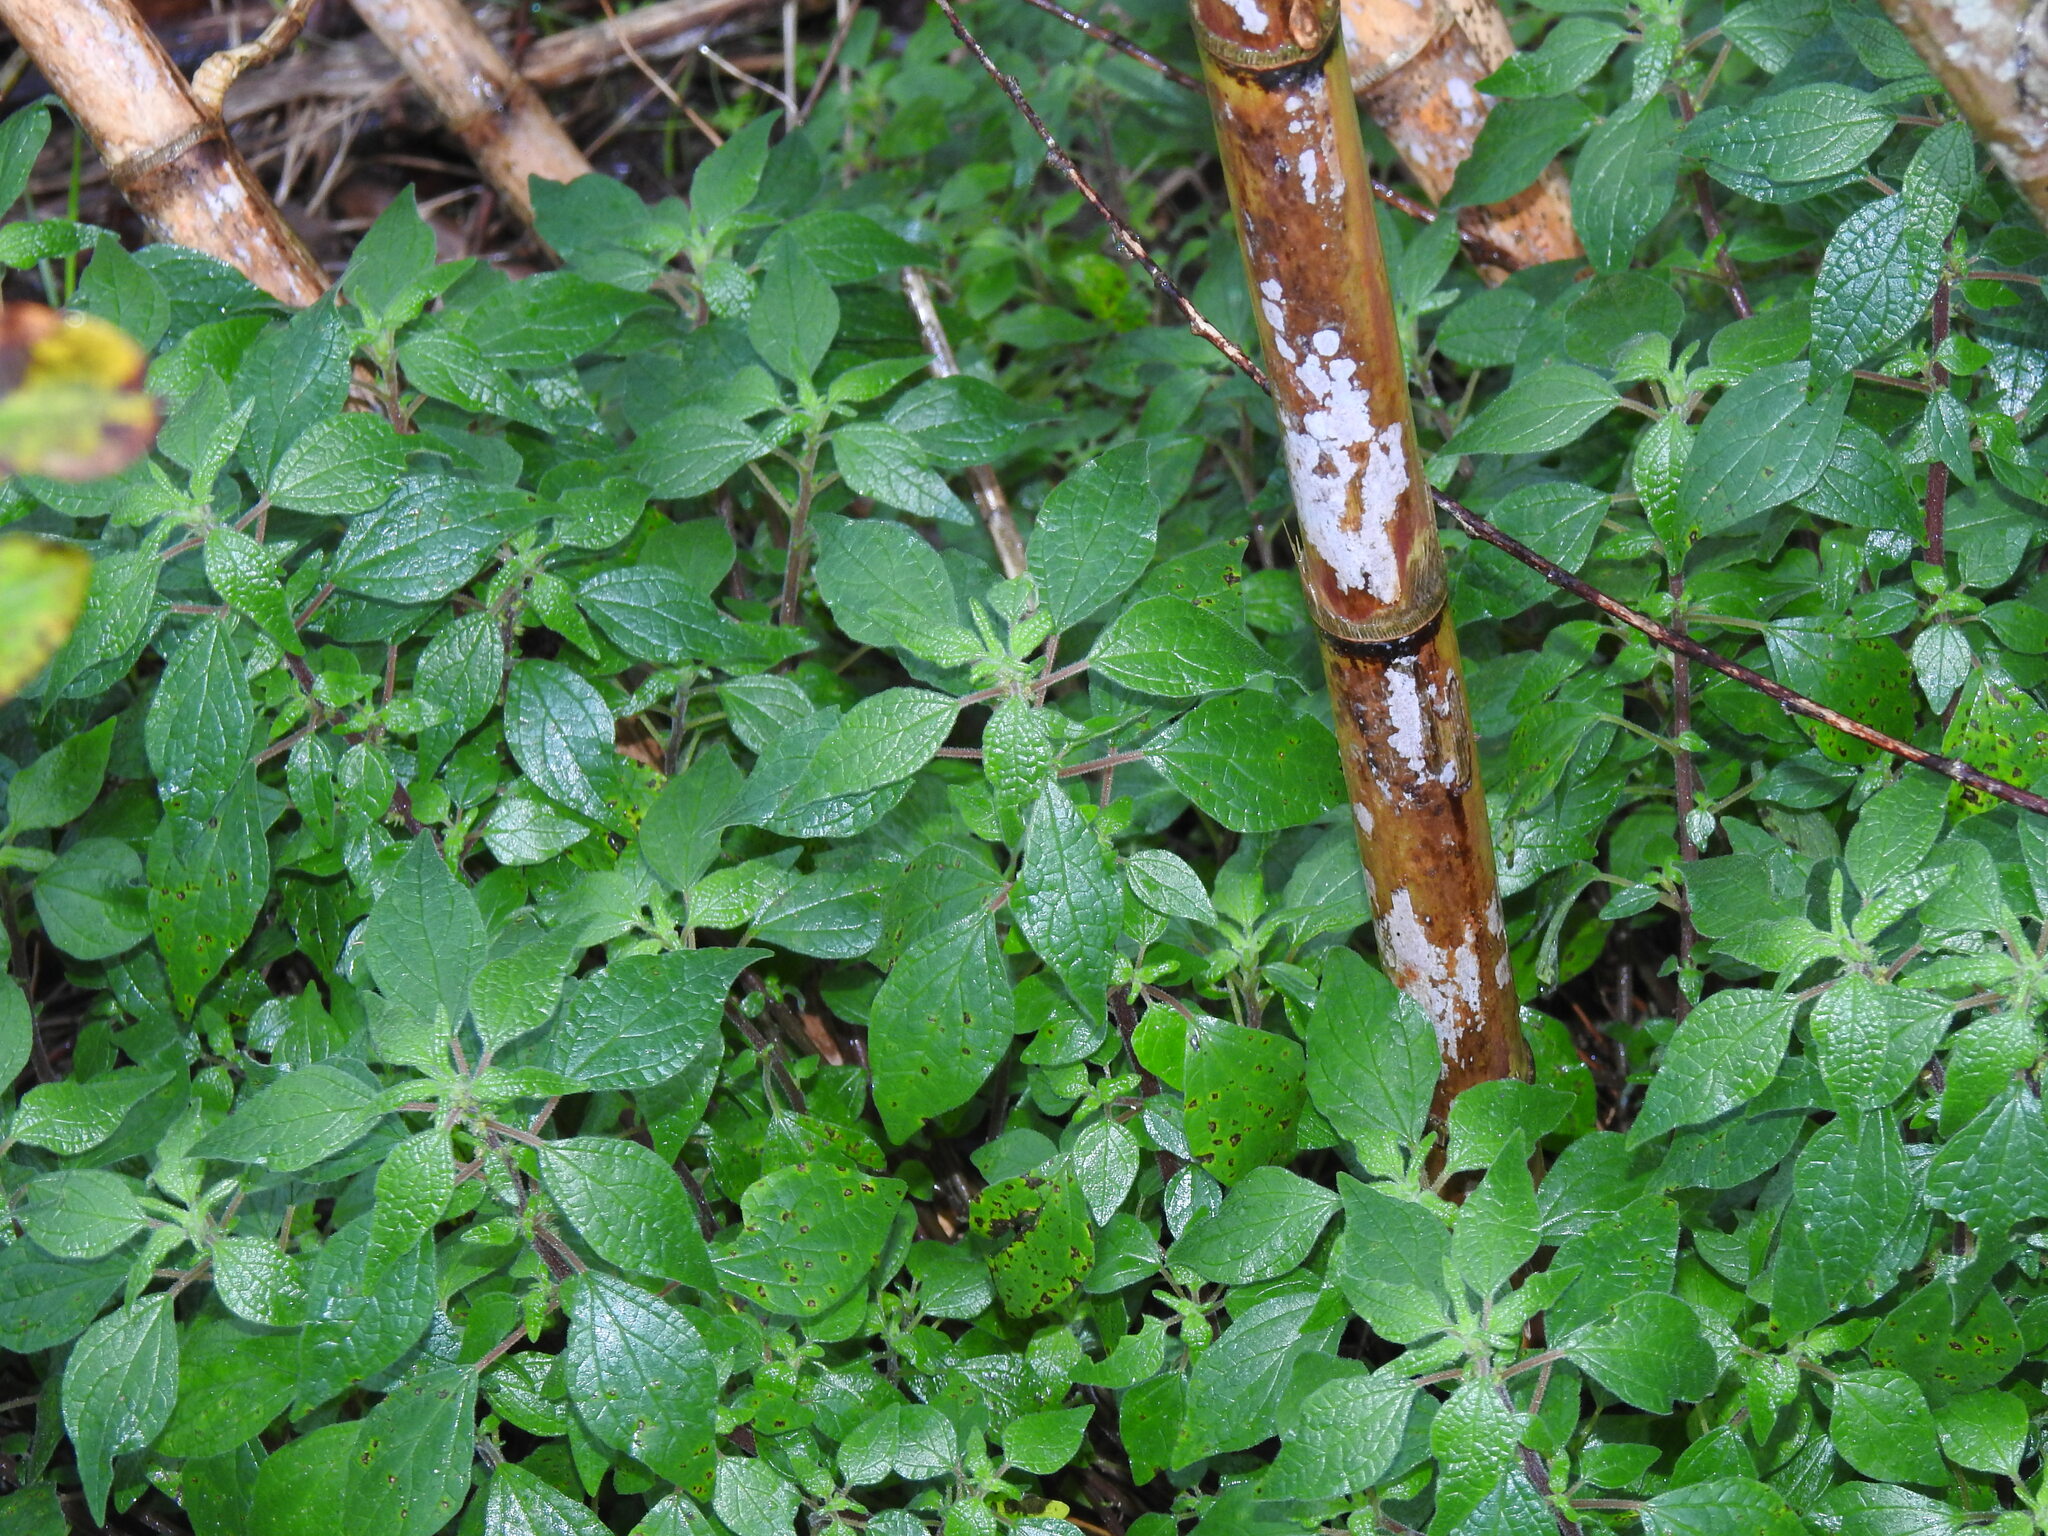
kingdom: Plantae
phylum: Tracheophyta
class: Magnoliopsida
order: Rosales
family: Urticaceae
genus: Parietaria
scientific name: Parietaria judaica
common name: Pellitory-of-the-wall
